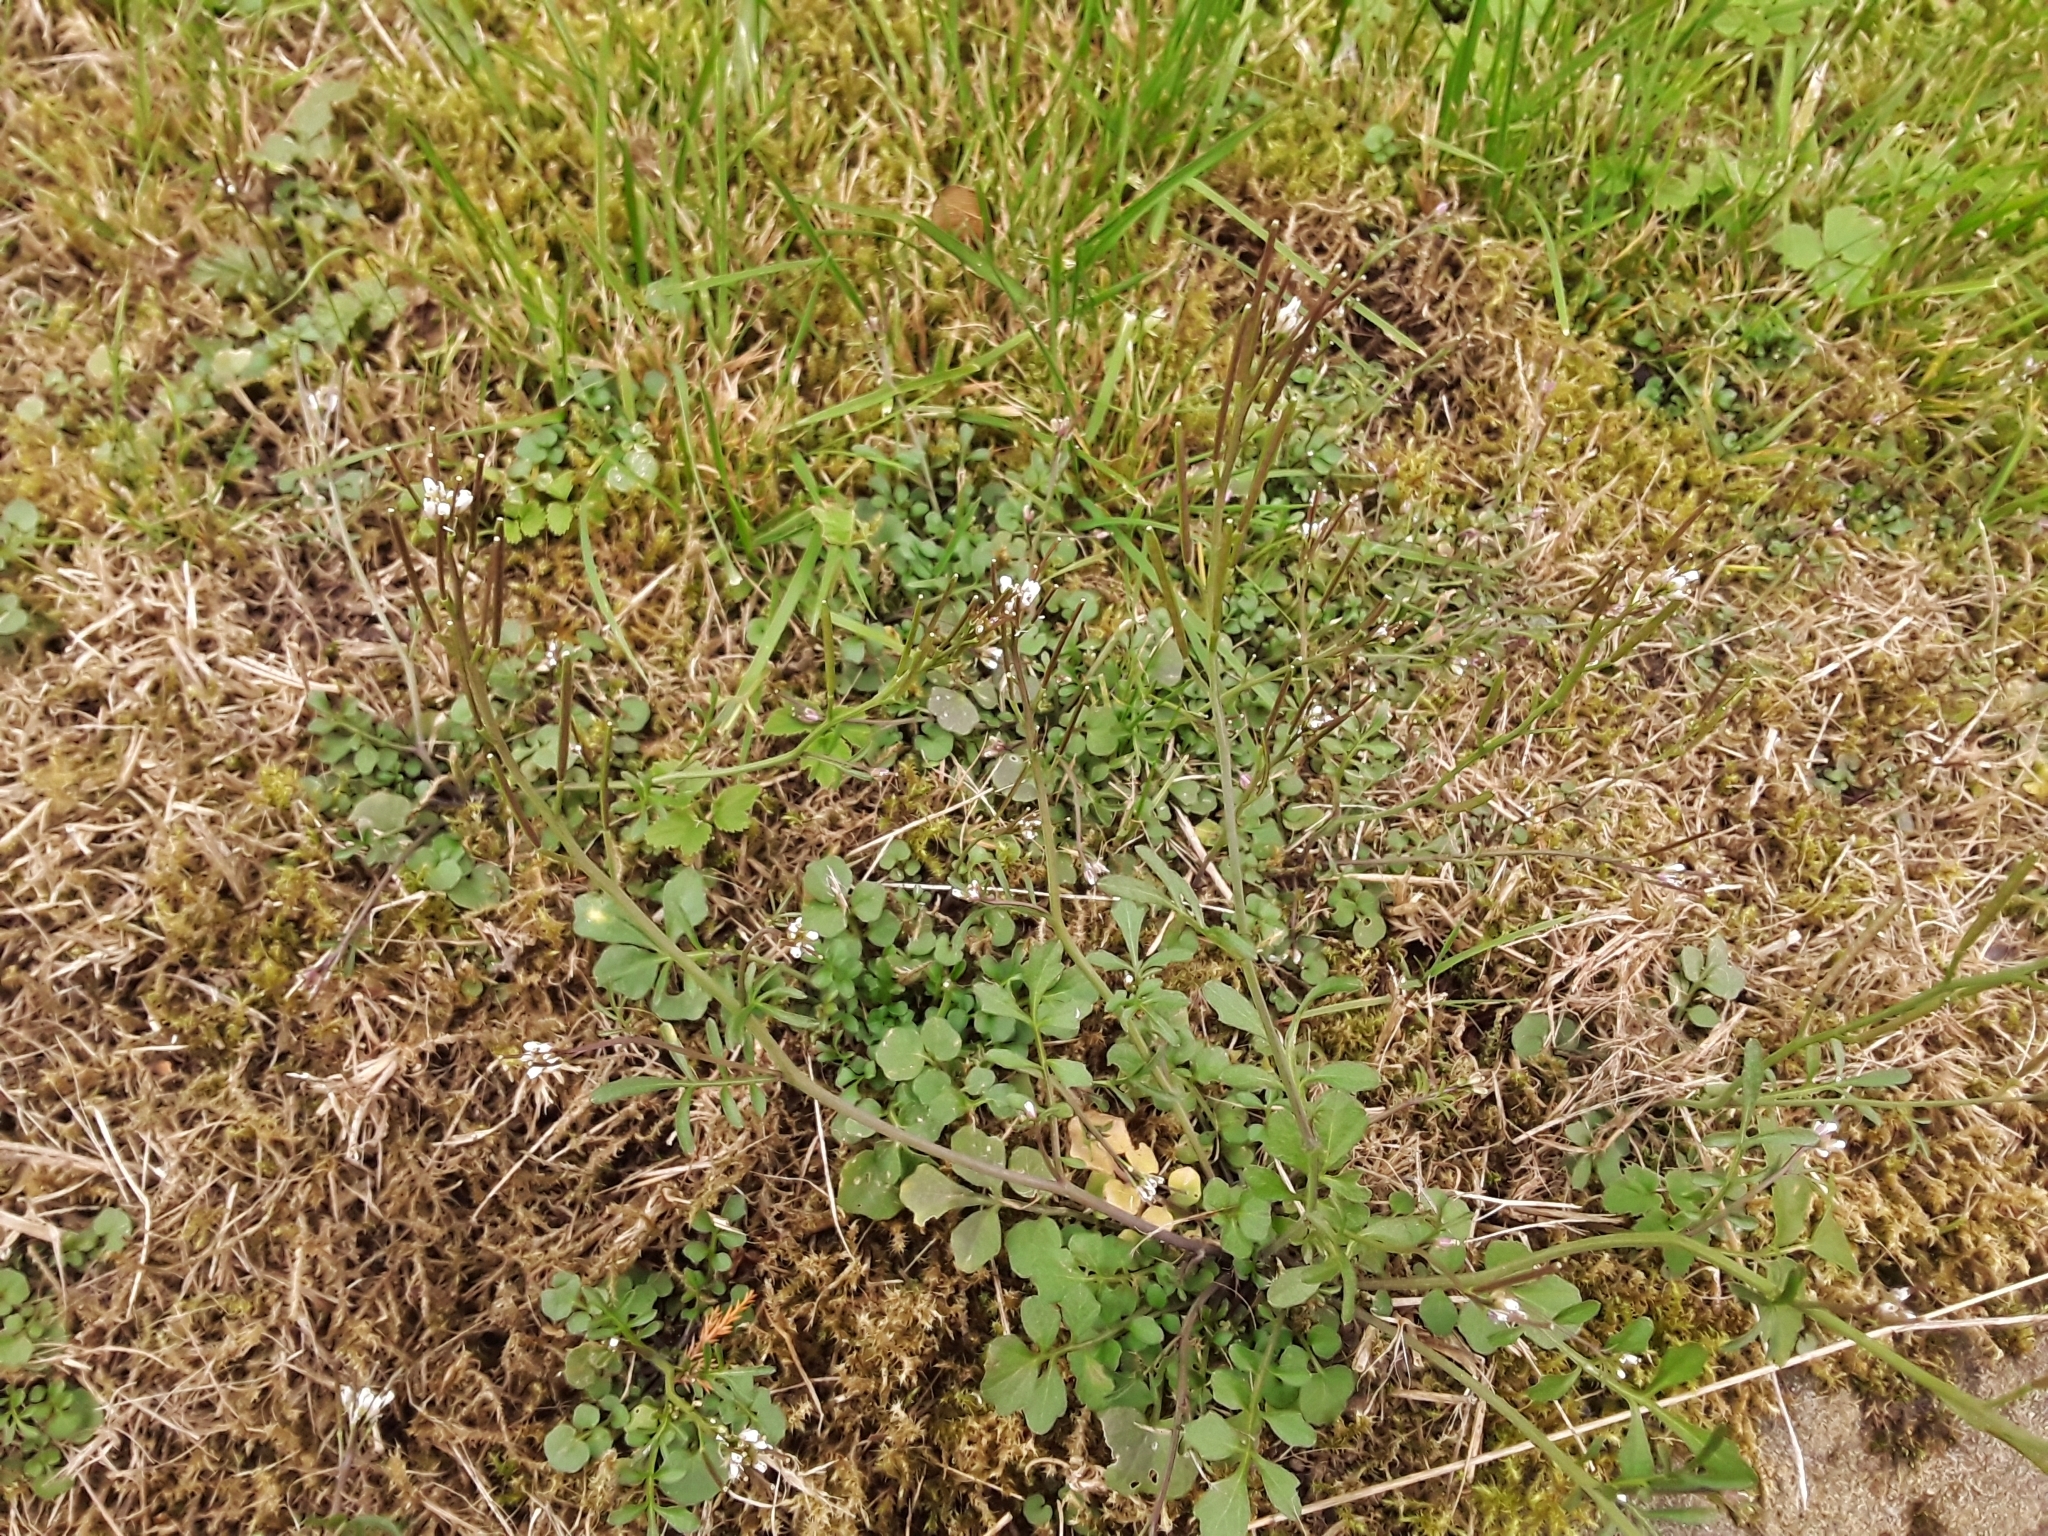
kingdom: Plantae
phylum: Tracheophyta
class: Magnoliopsida
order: Brassicales
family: Brassicaceae
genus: Cardamine
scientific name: Cardamine hirsuta
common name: Hairy bittercress
